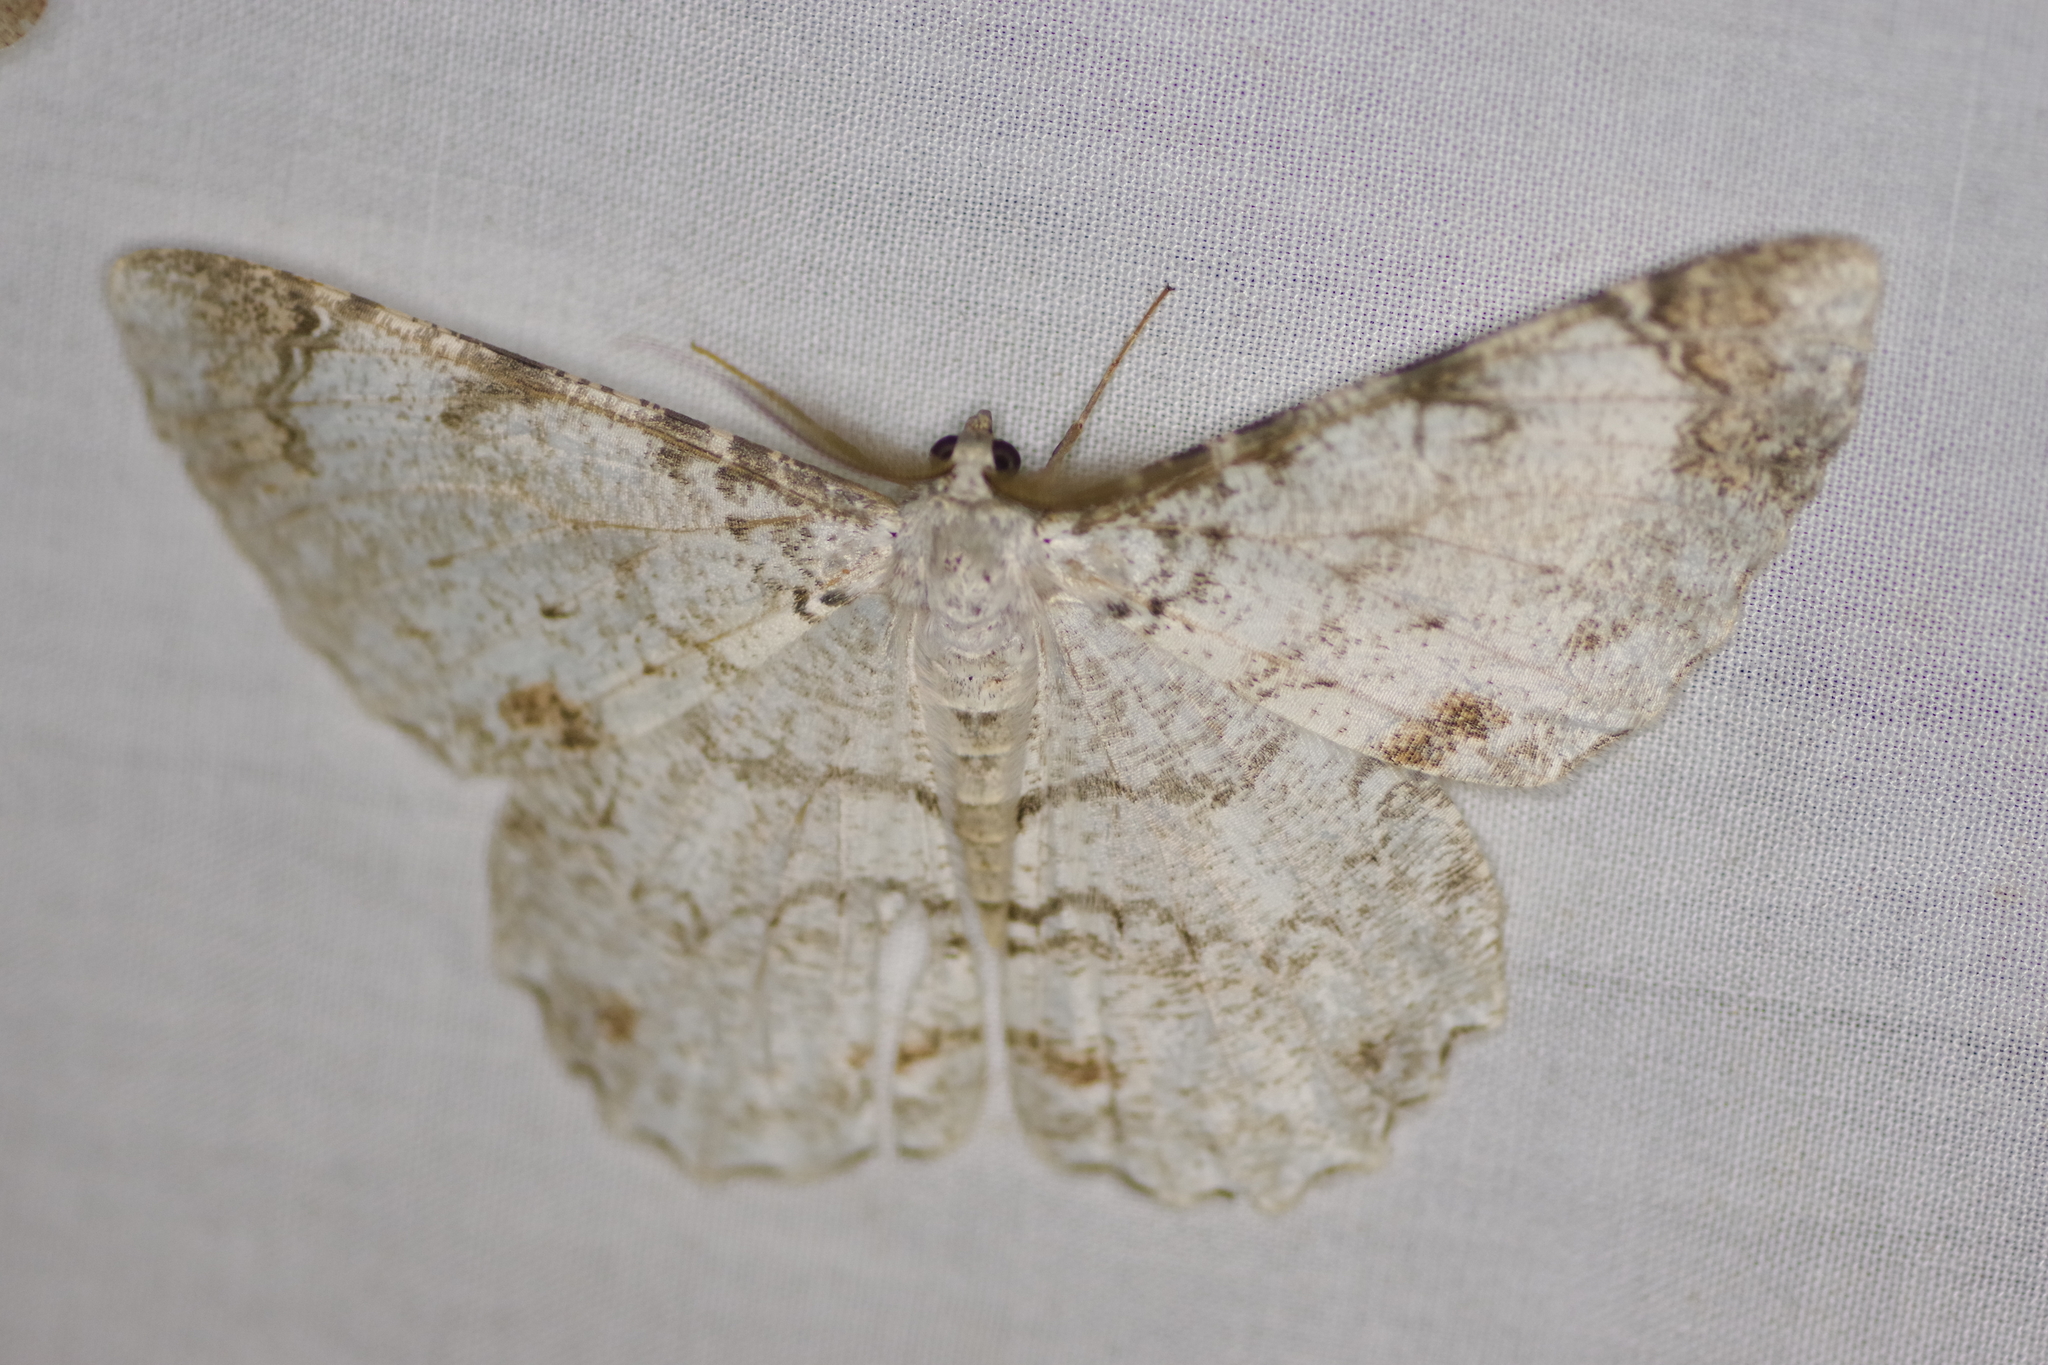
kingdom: Animalia
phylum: Arthropoda
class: Insecta
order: Lepidoptera
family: Geometridae
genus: Epimecis
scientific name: Epimecis puellaria
